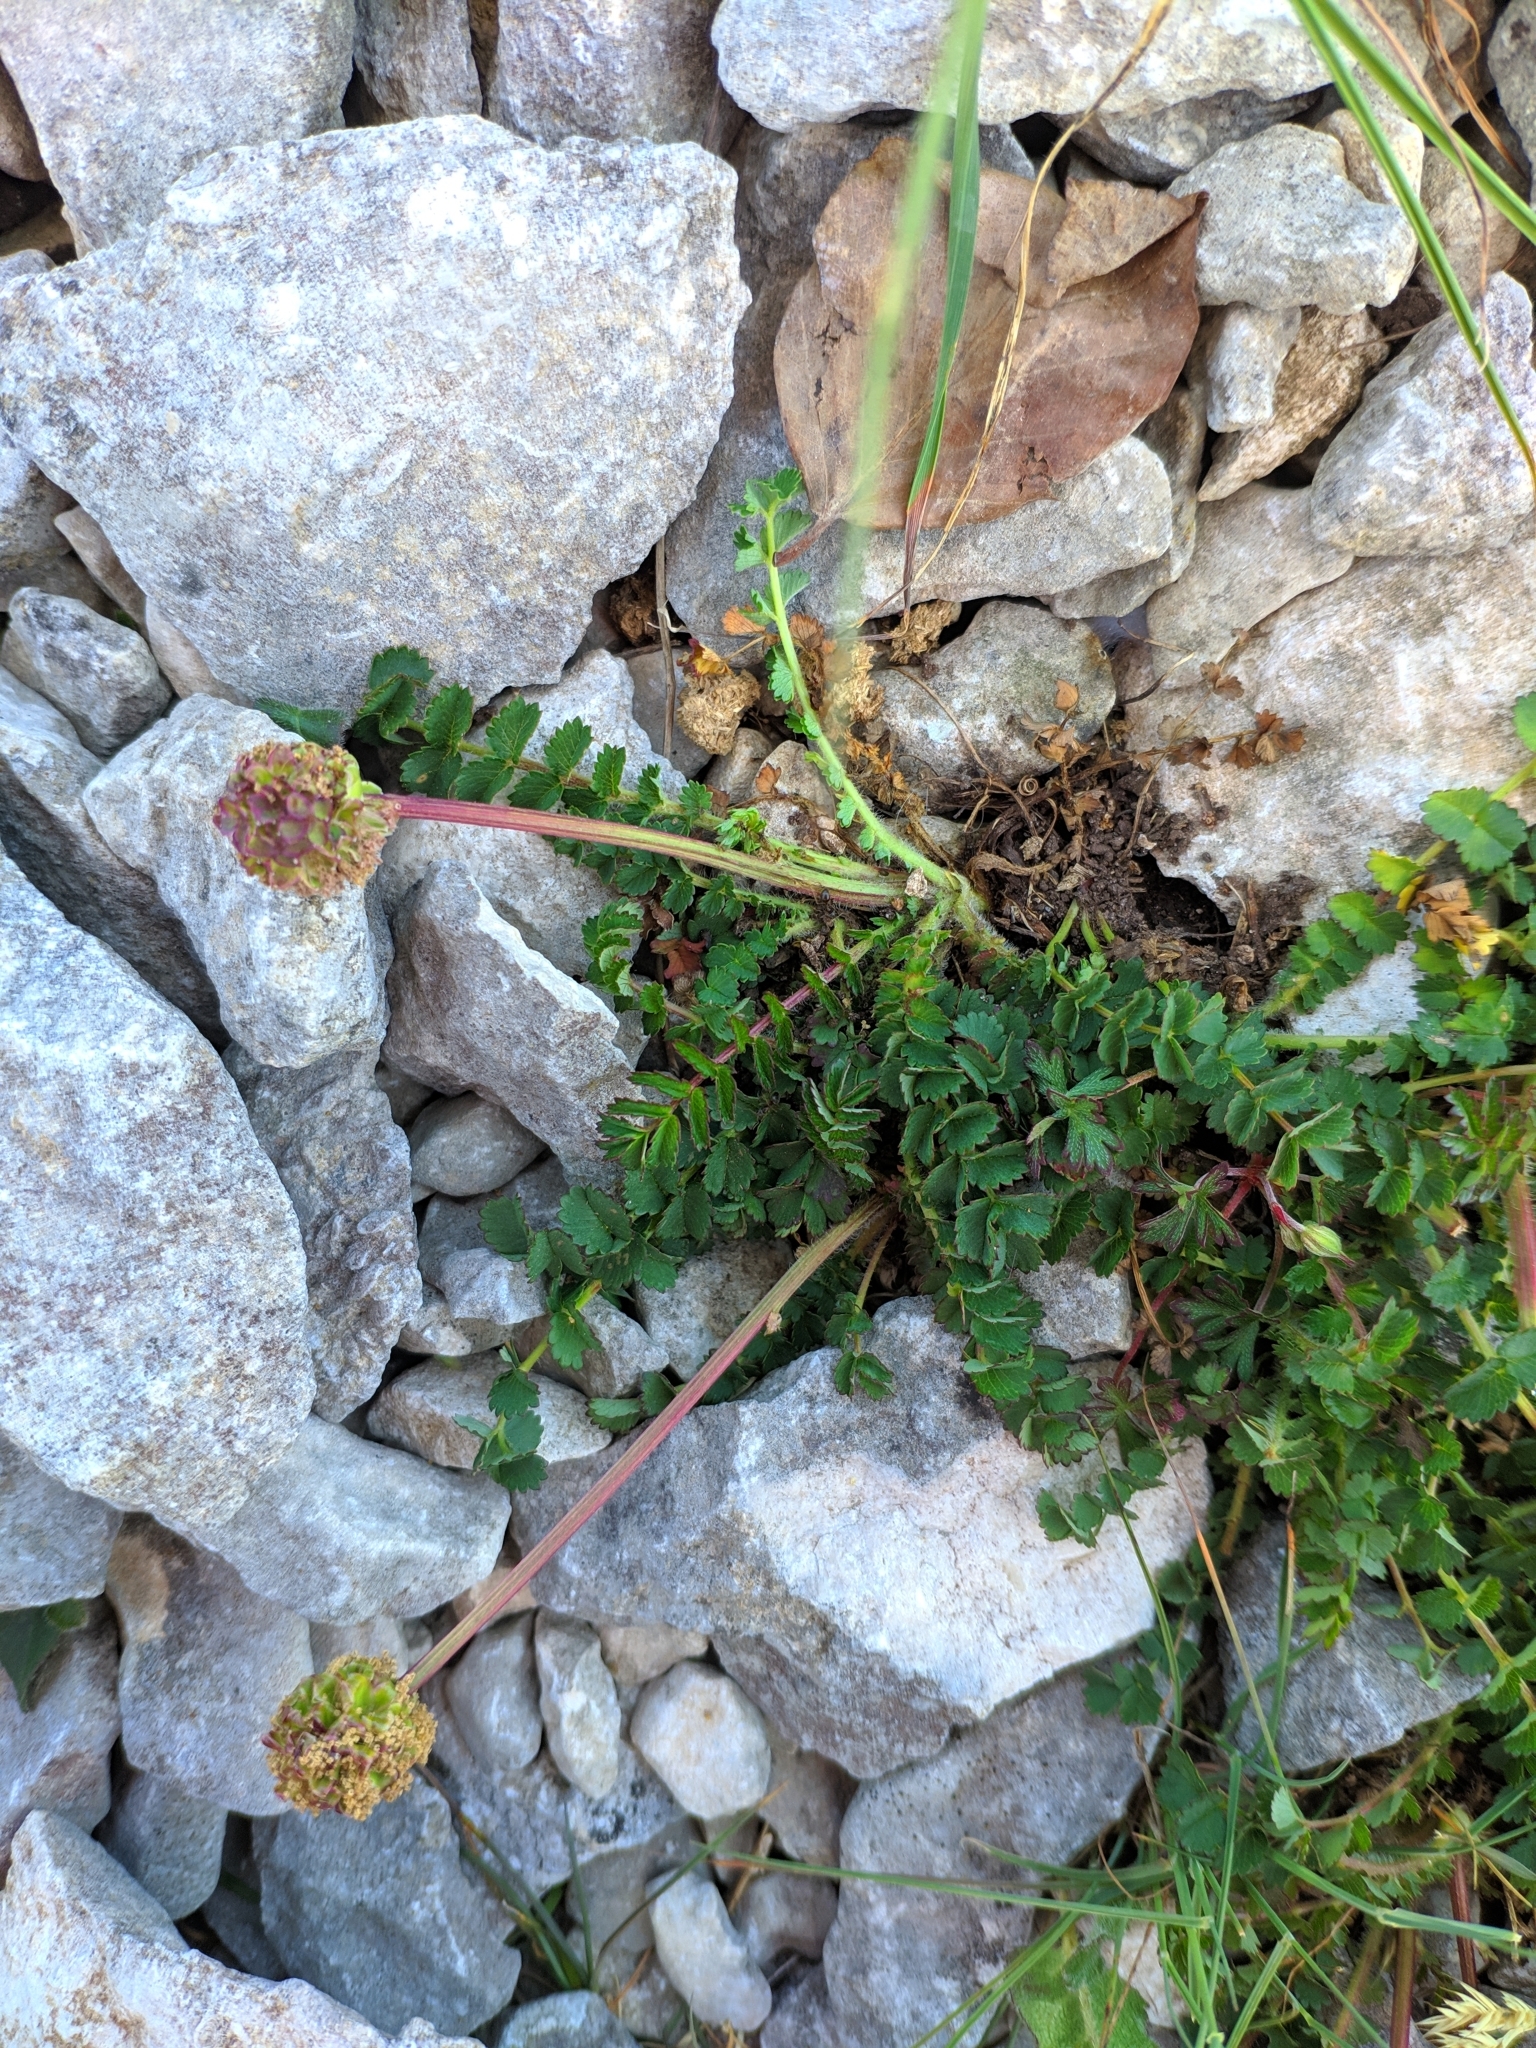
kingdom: Plantae
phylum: Tracheophyta
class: Magnoliopsida
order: Rosales
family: Rosaceae
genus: Poterium
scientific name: Poterium sanguisorba
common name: Salad burnet
